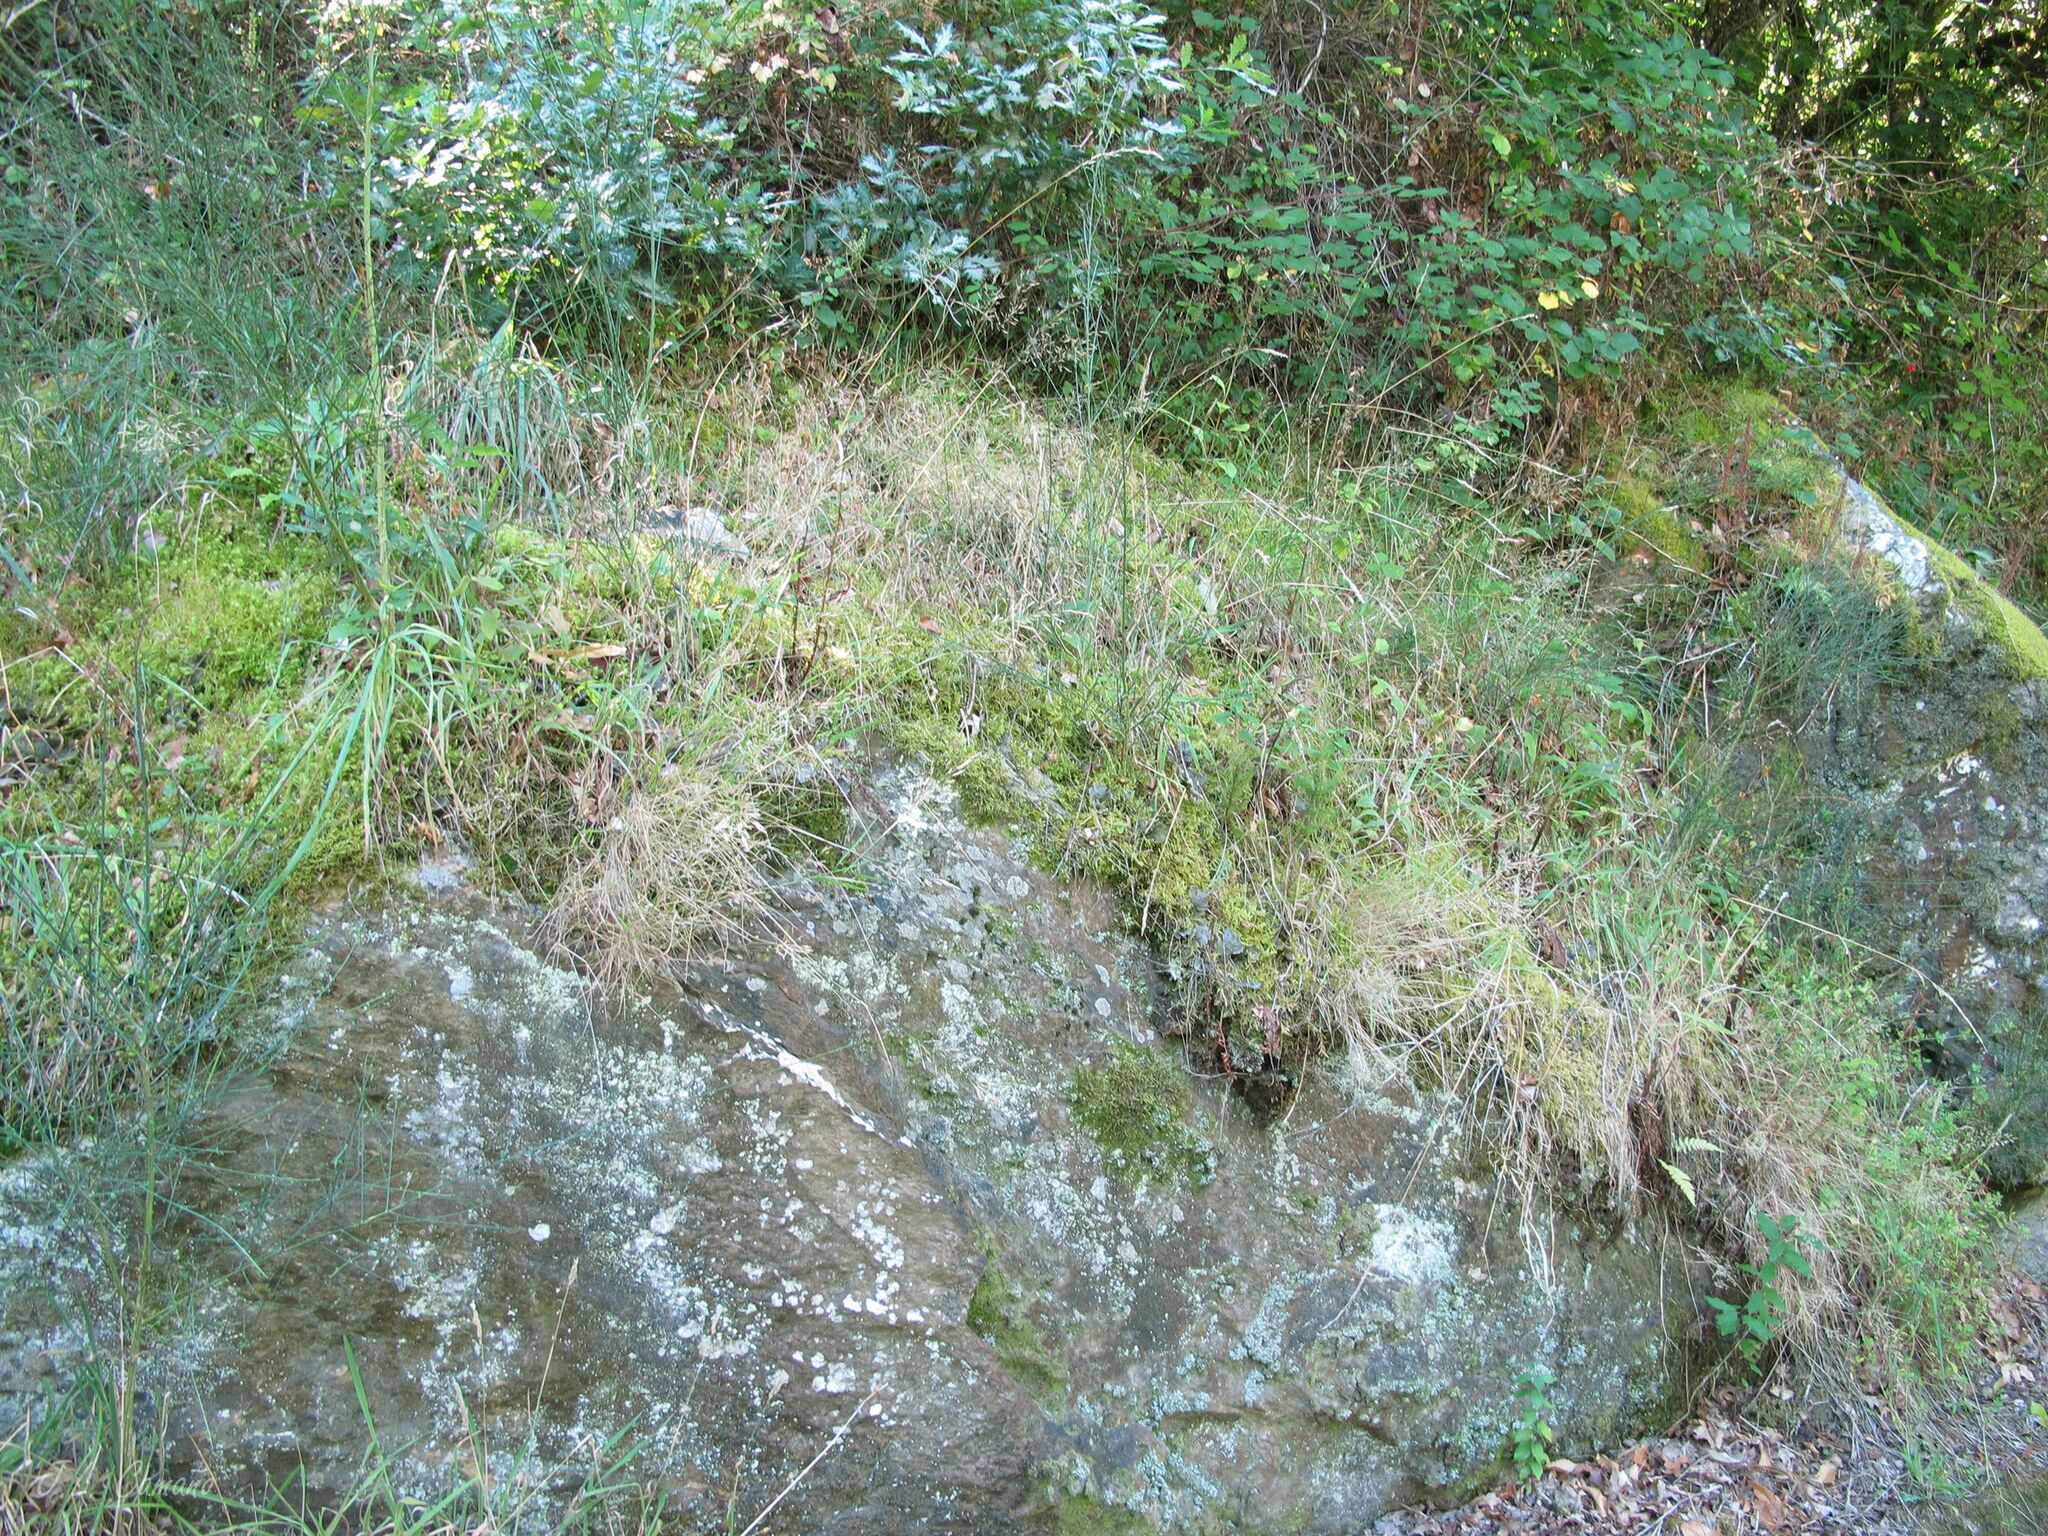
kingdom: Plantae
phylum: Bryophyta
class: Bryopsida
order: Hypnales
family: Brachytheciaceae
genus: Pseudoscleropodium
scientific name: Pseudoscleropodium purum
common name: Neat feather-moss
